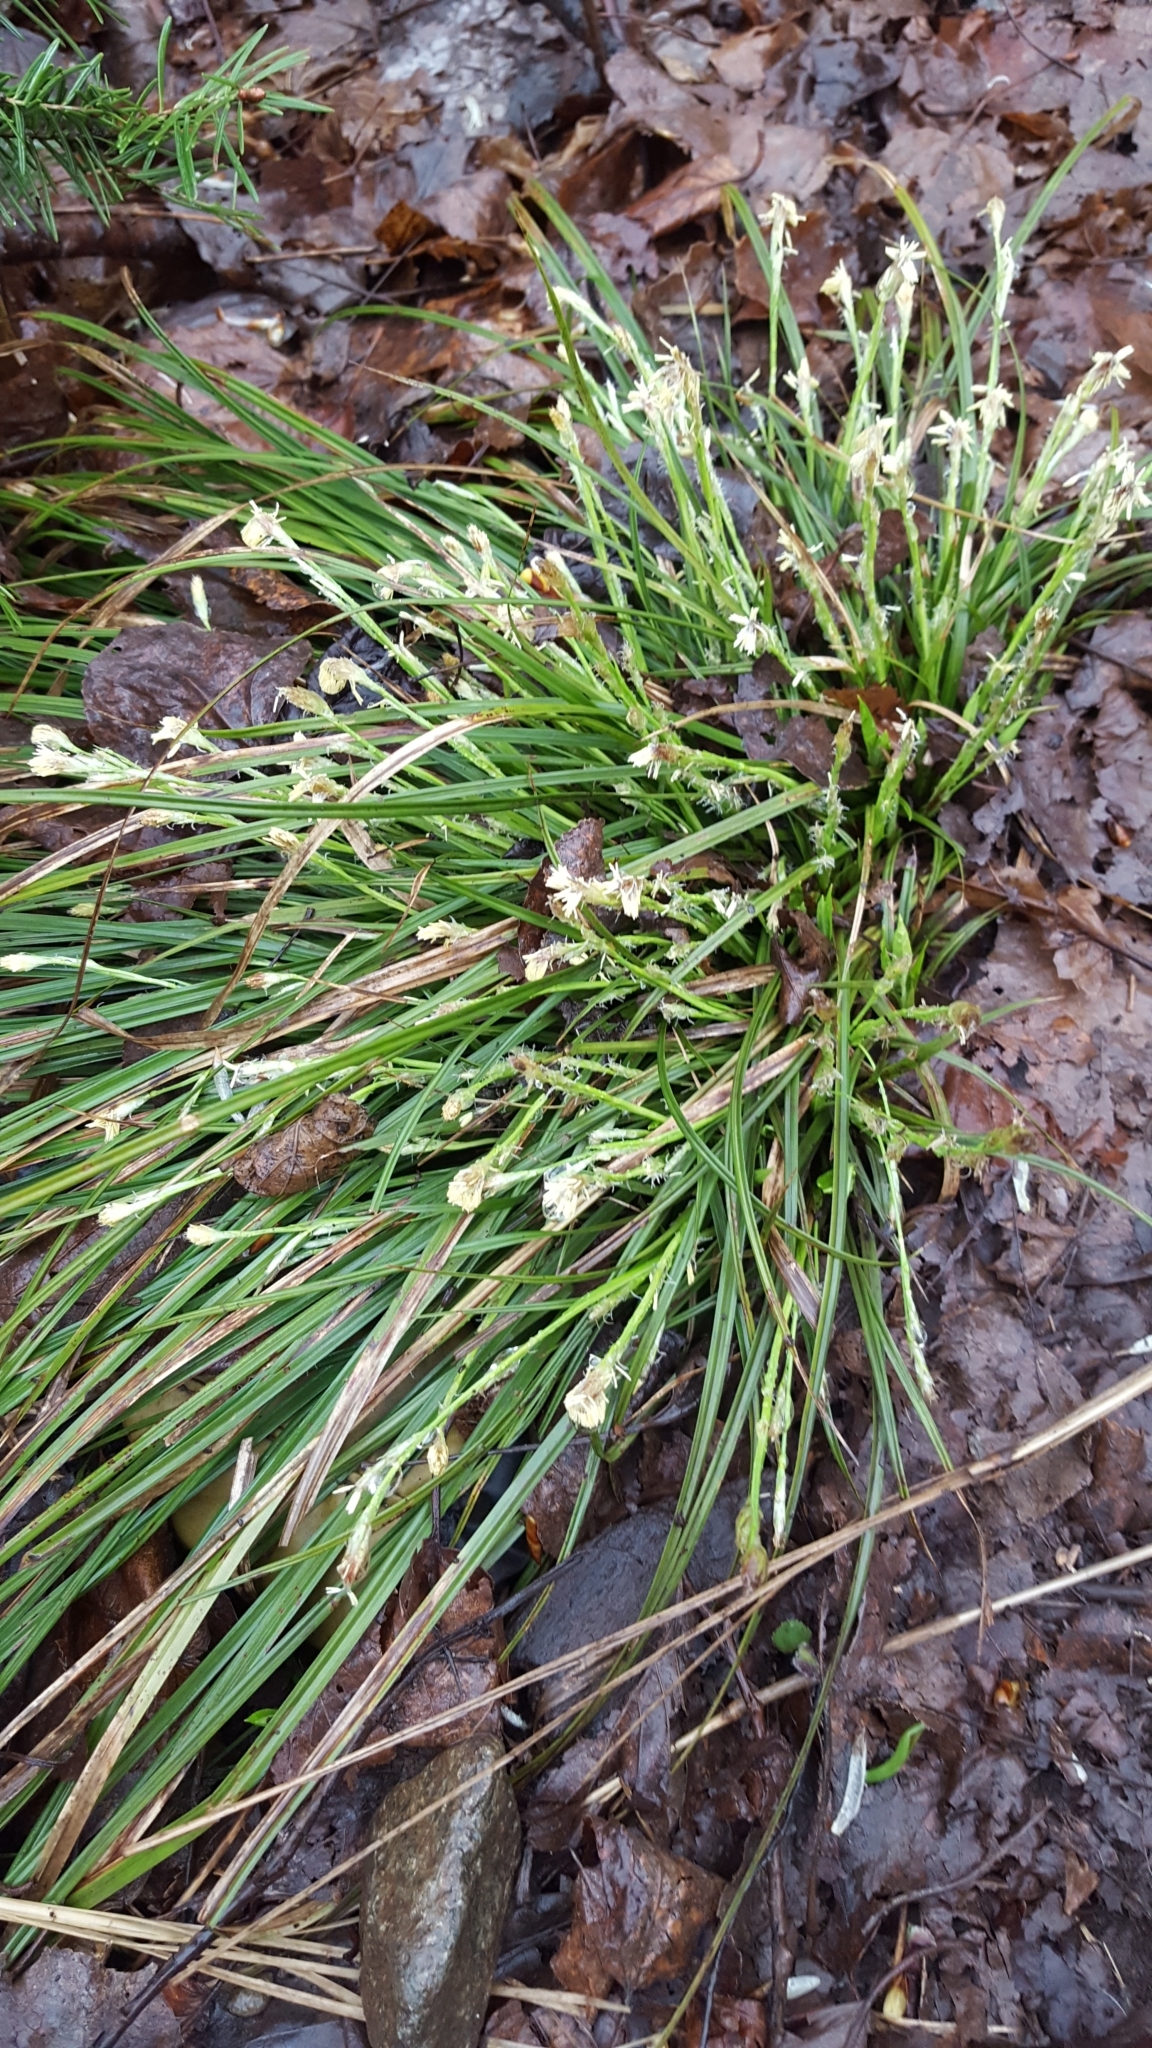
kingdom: Plantae
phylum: Tracheophyta
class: Liliopsida
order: Poales
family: Cyperaceae
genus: Carex
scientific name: Carex pedunculata
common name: Pedunculate sedge
